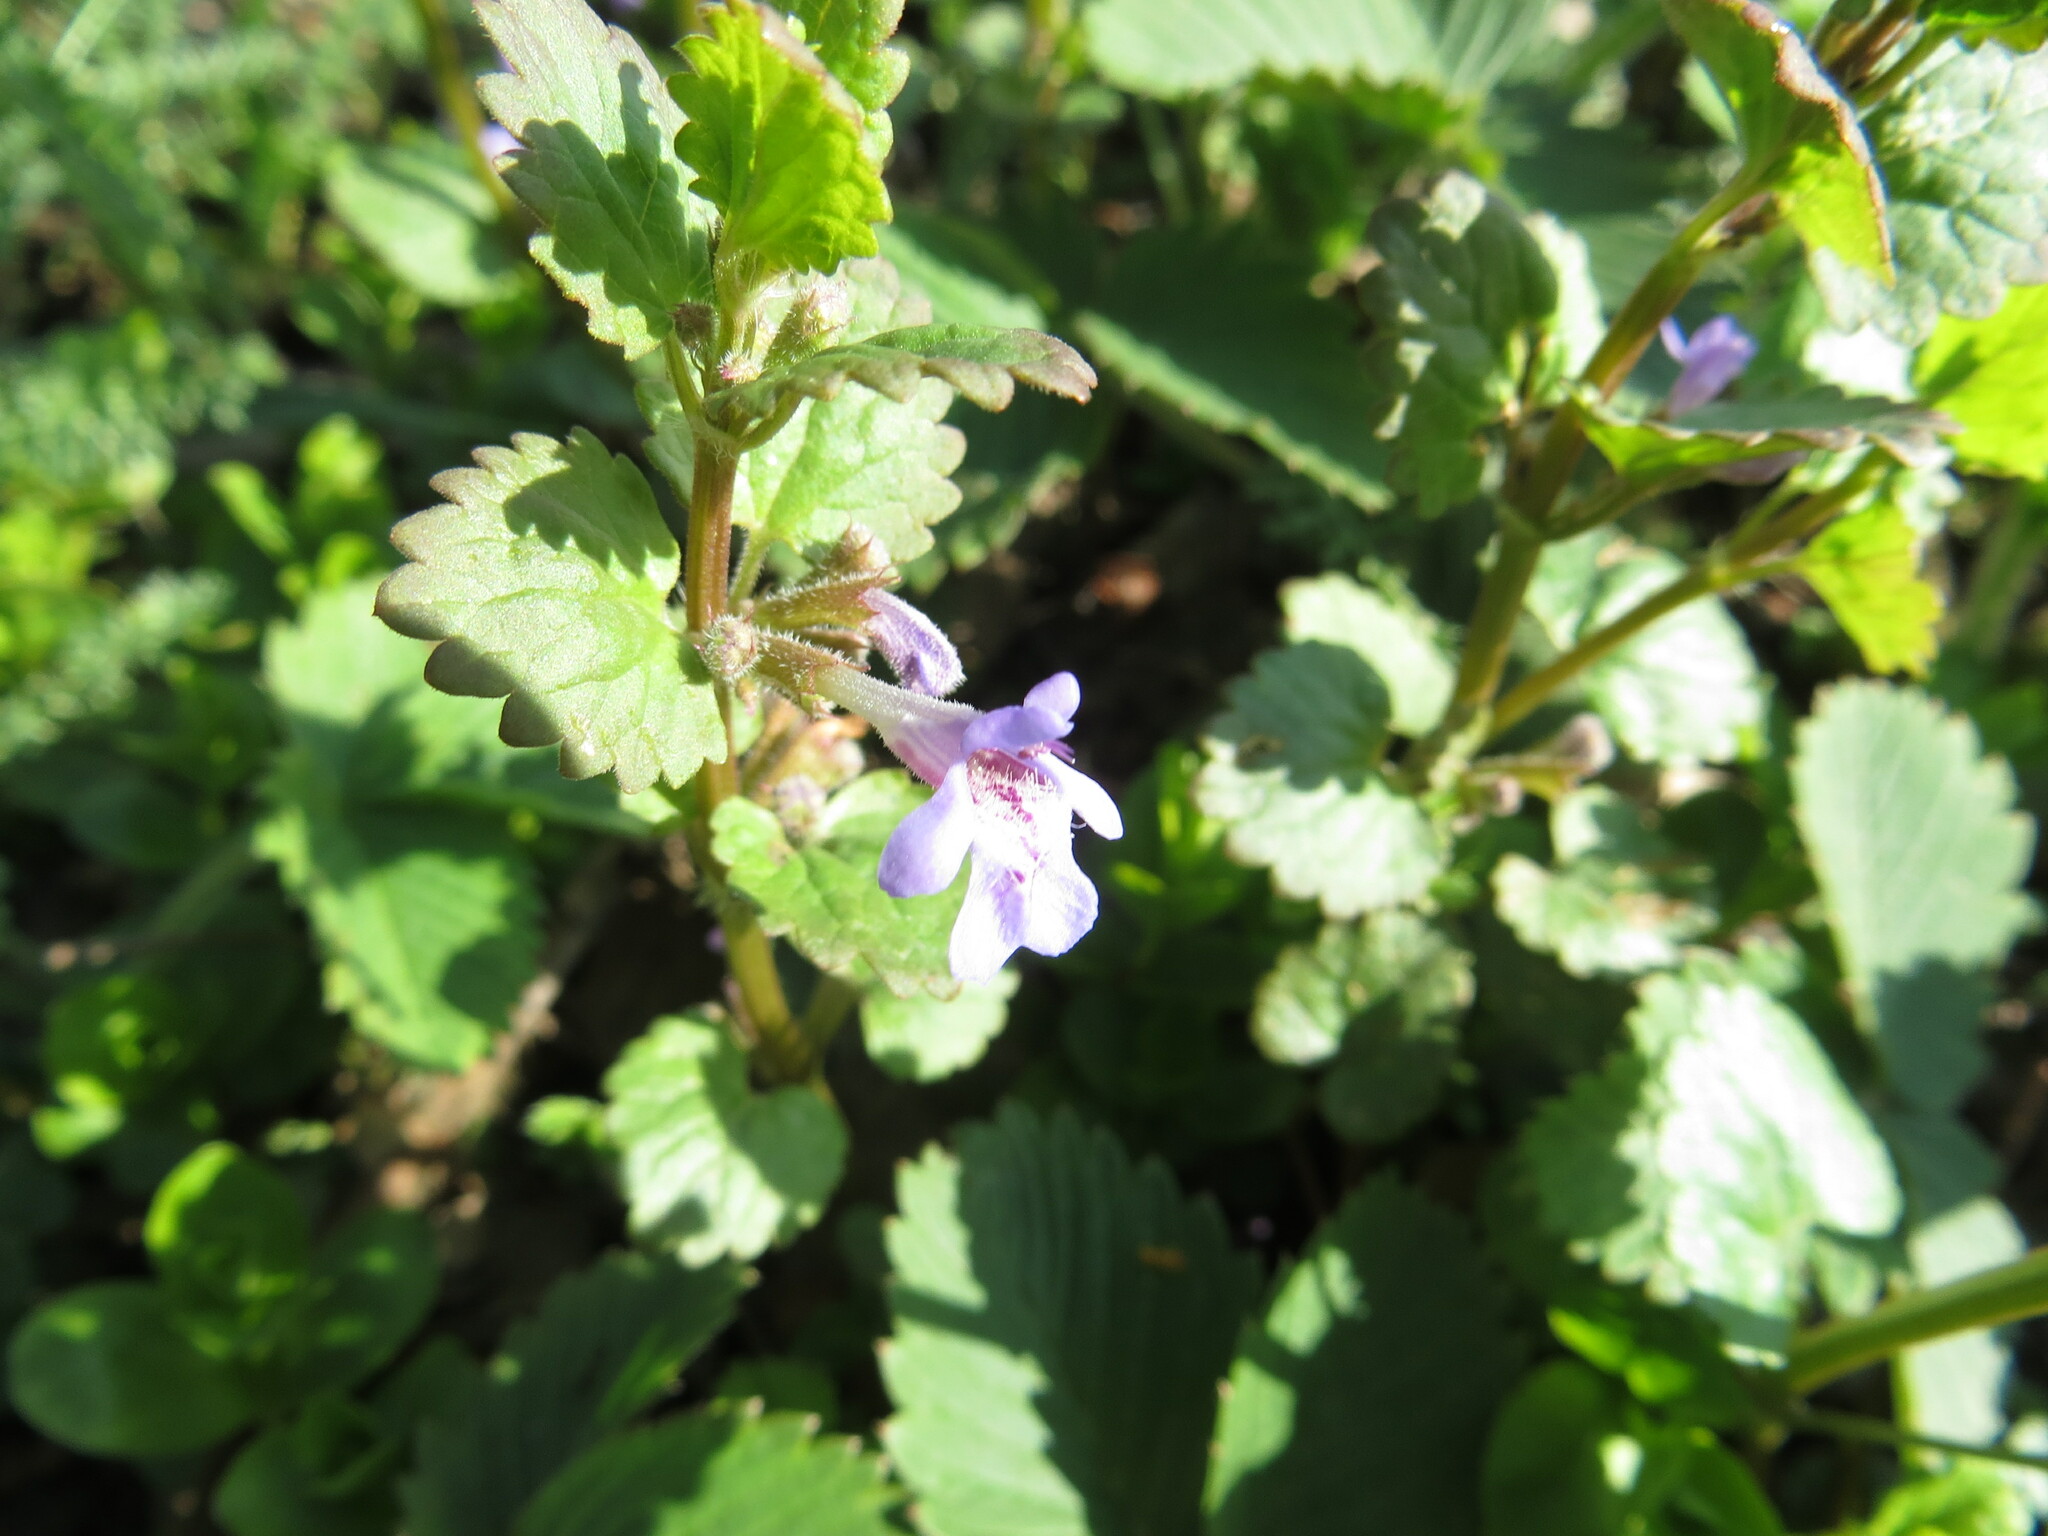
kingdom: Plantae
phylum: Tracheophyta
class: Magnoliopsida
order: Lamiales
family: Lamiaceae
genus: Glechoma
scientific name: Glechoma hederacea
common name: Ground ivy
